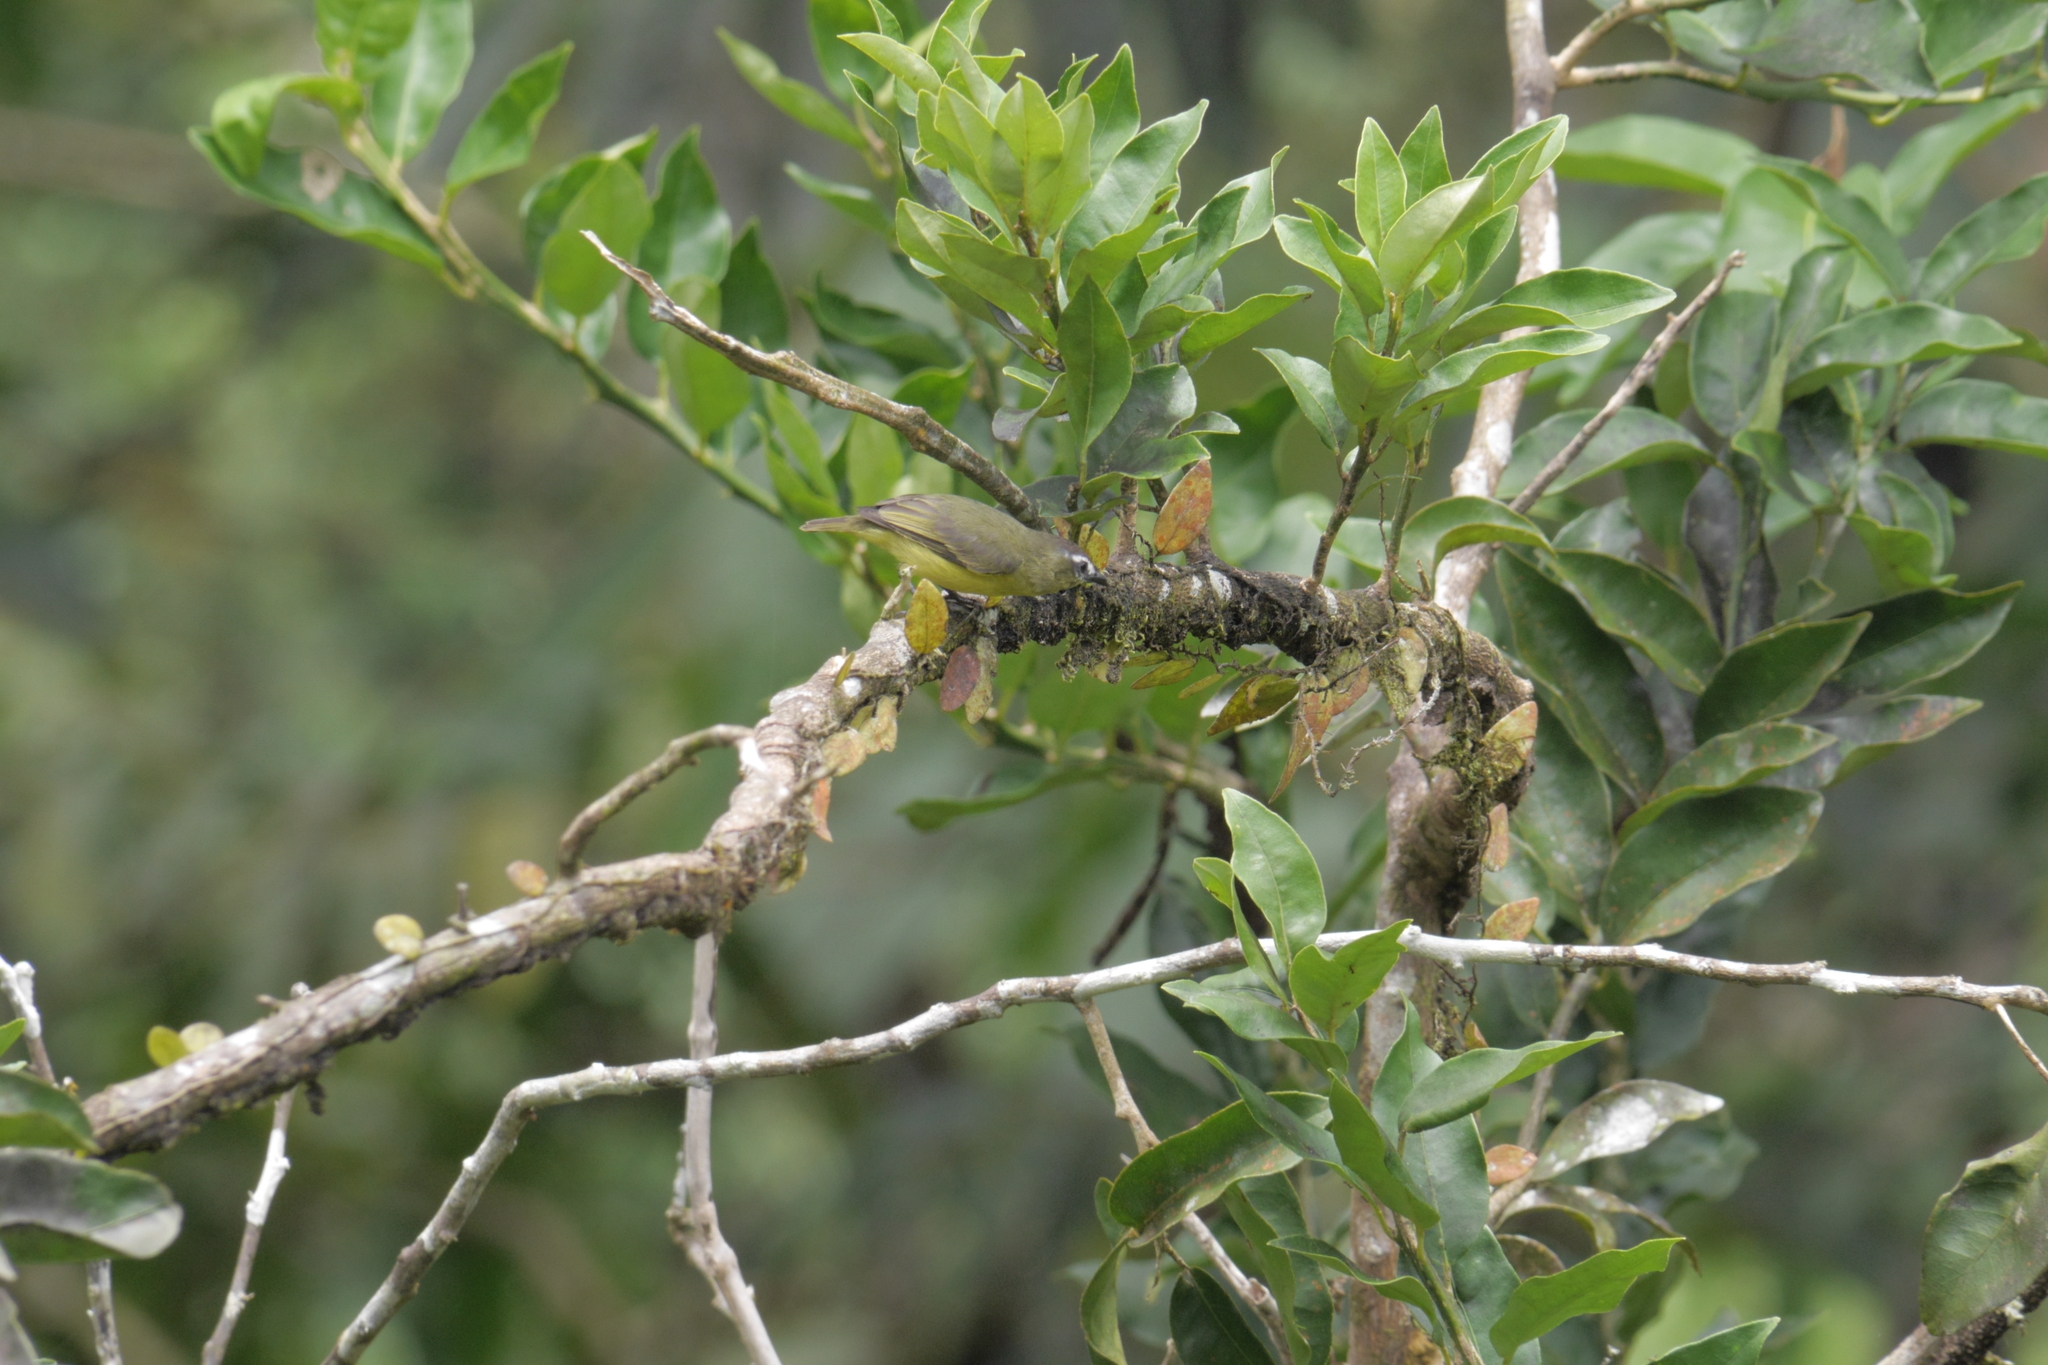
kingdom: Animalia
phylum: Chordata
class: Aves
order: Passeriformes
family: Tyrannidae
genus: Ornithion
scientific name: Ornithion brunneicapillus
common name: Brown-capped tyrannulet
